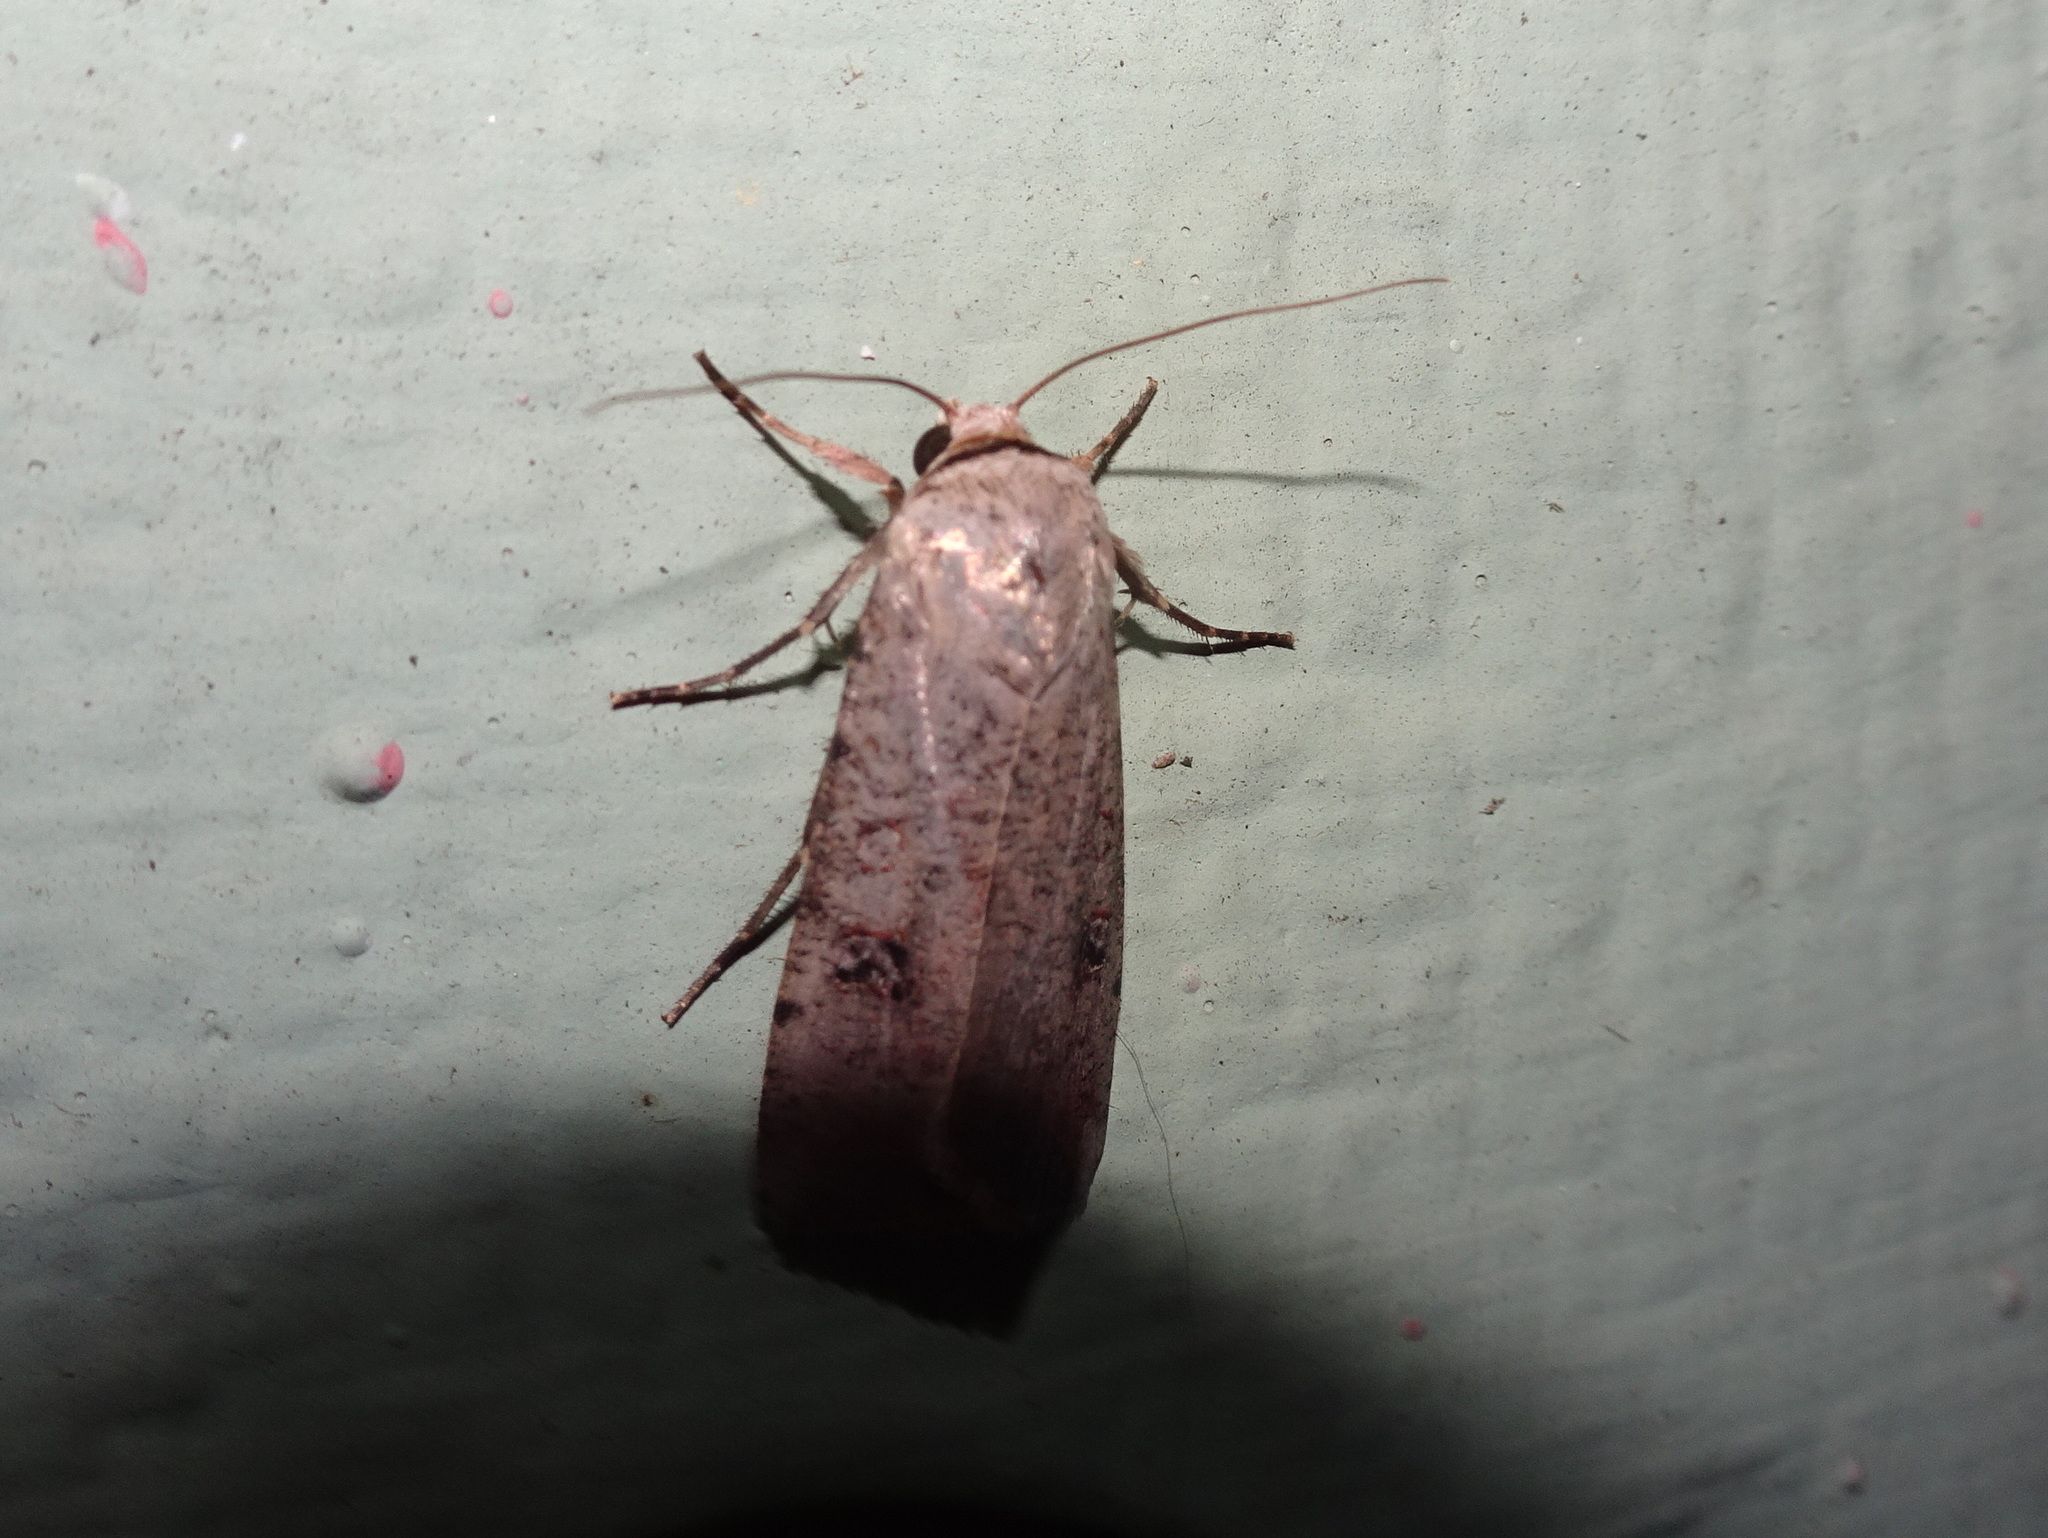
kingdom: Animalia
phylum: Arthropoda
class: Insecta
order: Lepidoptera
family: Noctuidae
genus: Anicla
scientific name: Anicla infecta
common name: Green cutworm
